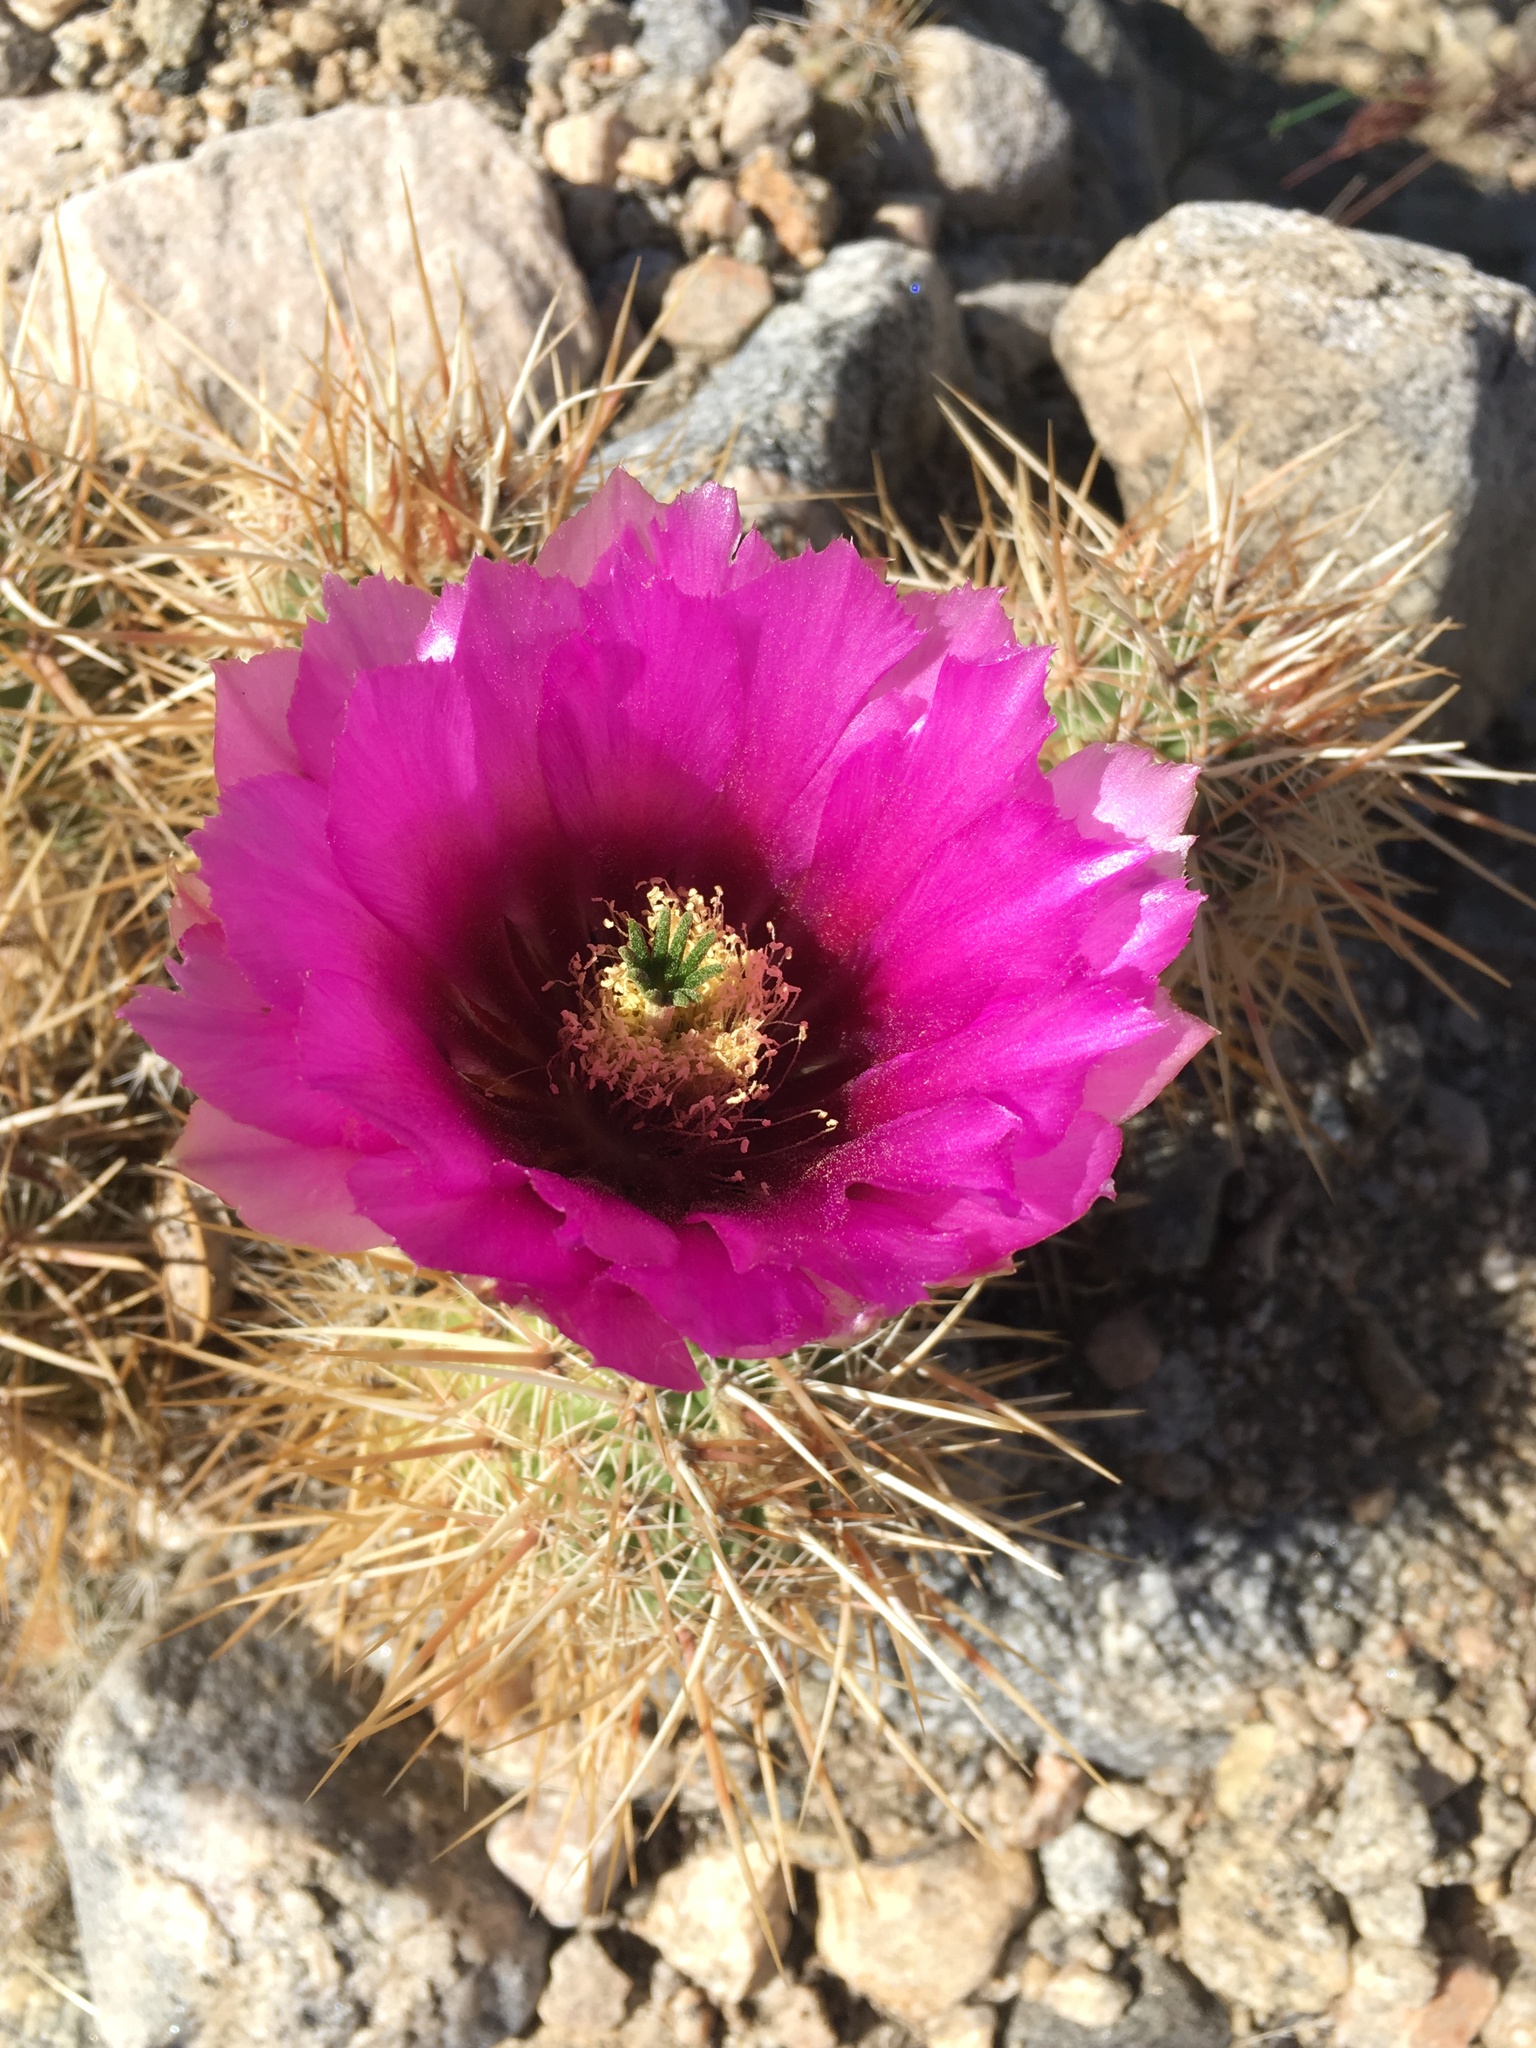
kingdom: Plantae
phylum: Tracheophyta
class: Magnoliopsida
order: Caryophyllales
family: Cactaceae
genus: Echinocereus
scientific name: Echinocereus engelmannii
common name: Engelmann's hedgehog cactus
